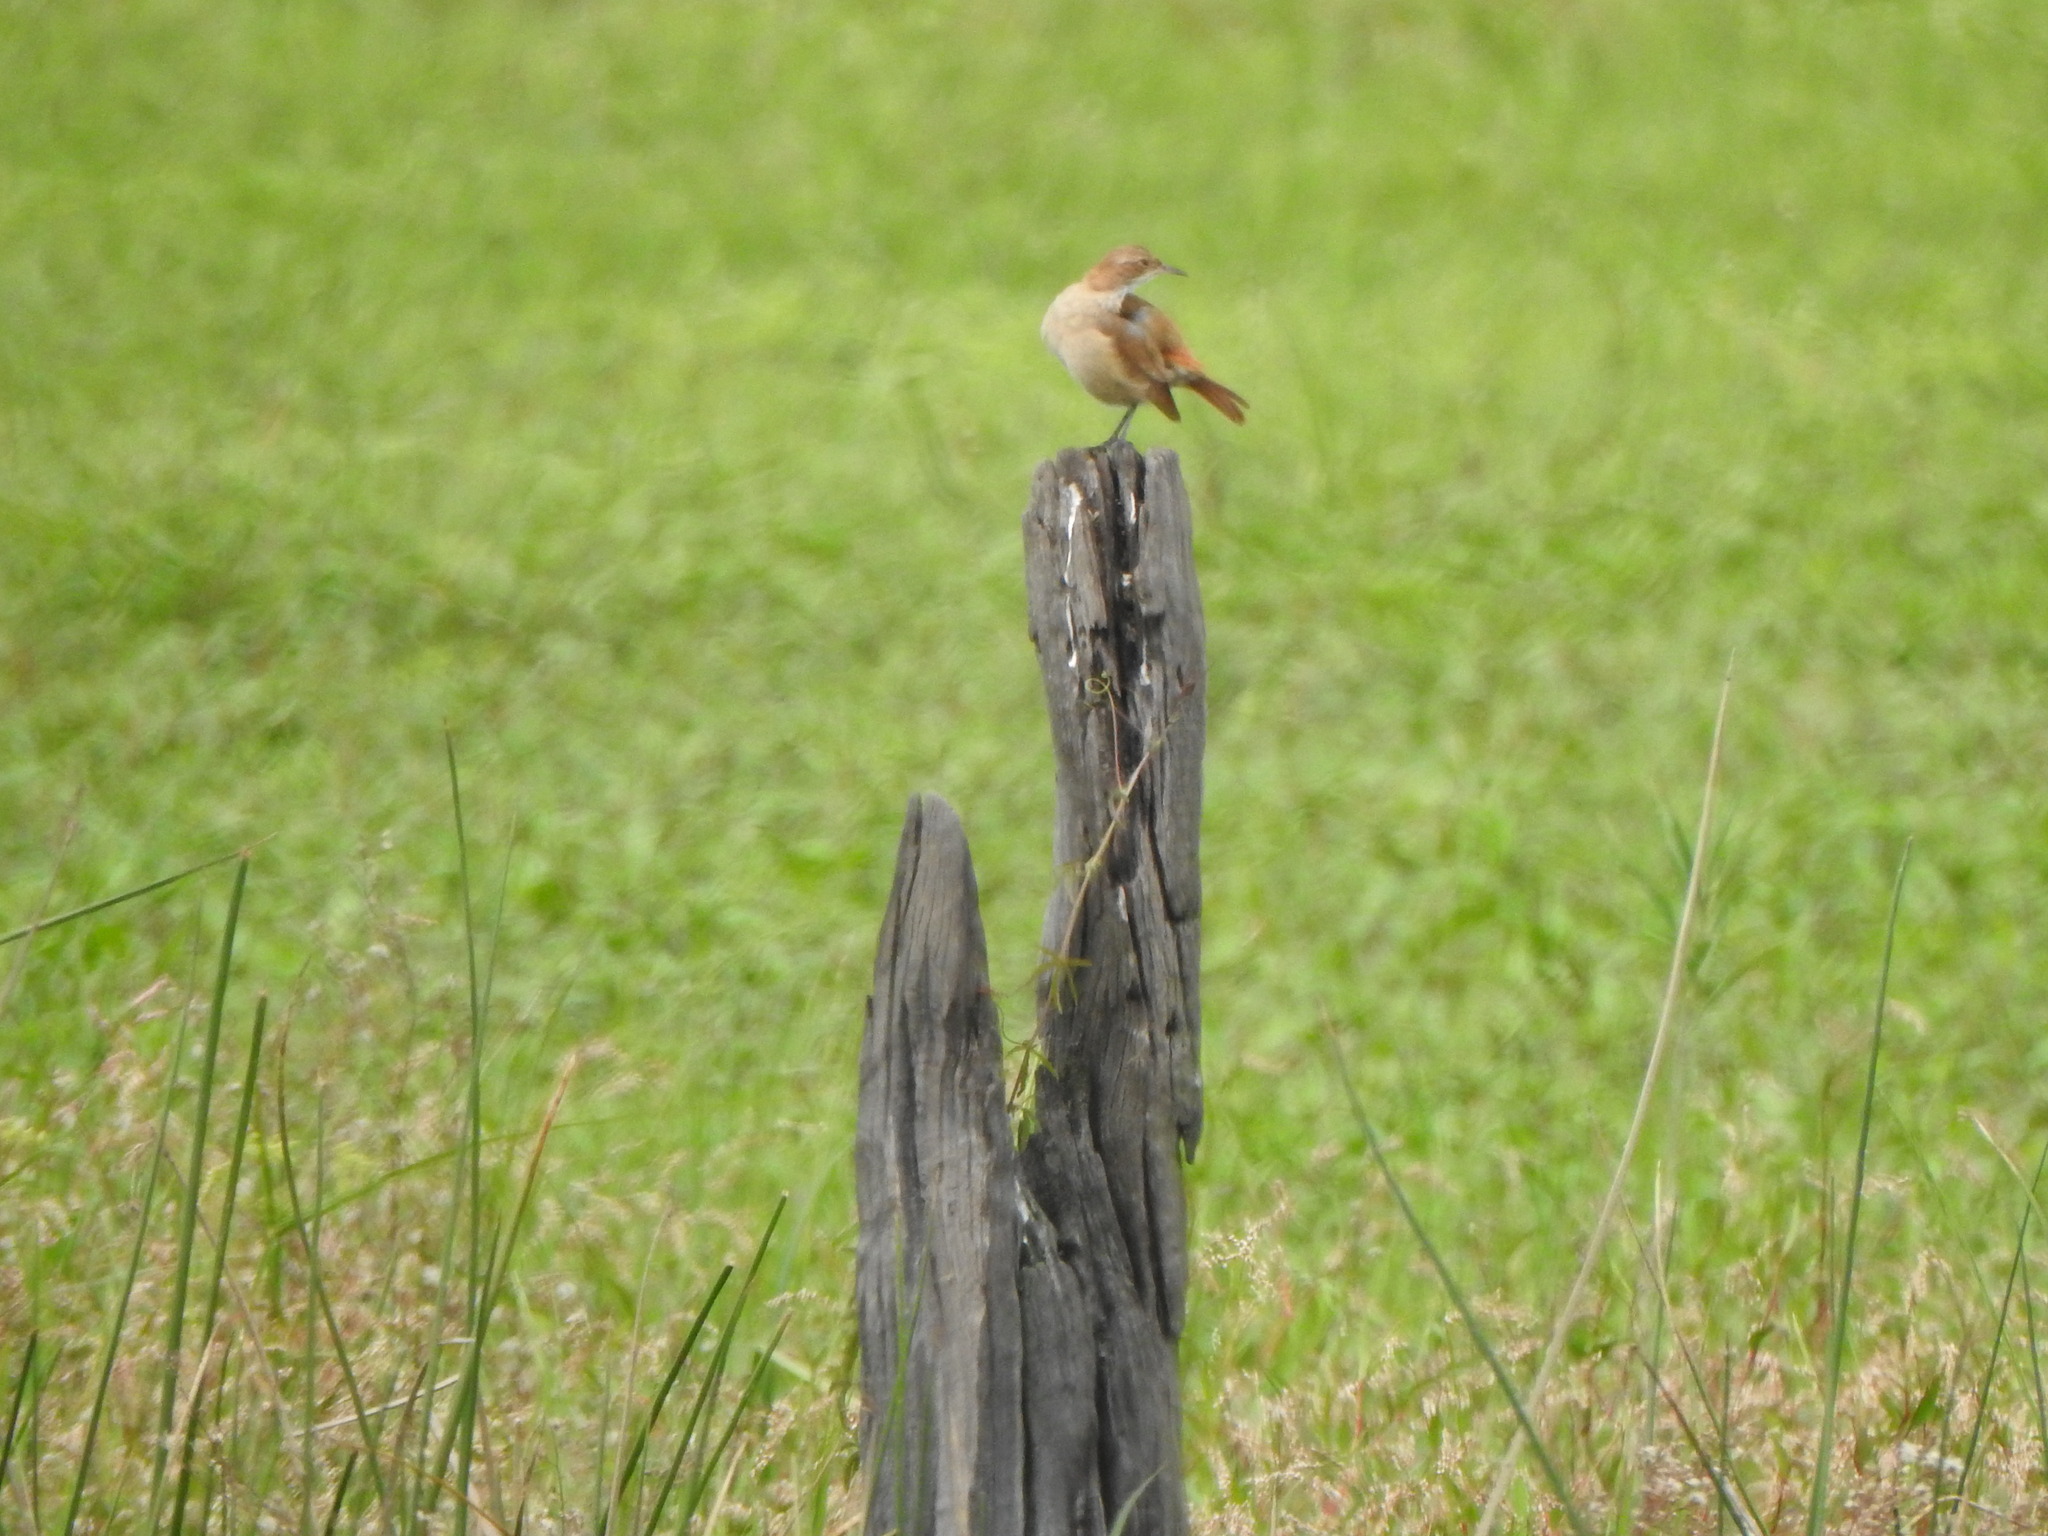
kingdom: Animalia
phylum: Chordata
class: Aves
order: Passeriformes
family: Furnariidae
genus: Furnarius
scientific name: Furnarius rufus
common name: Rufous hornero
